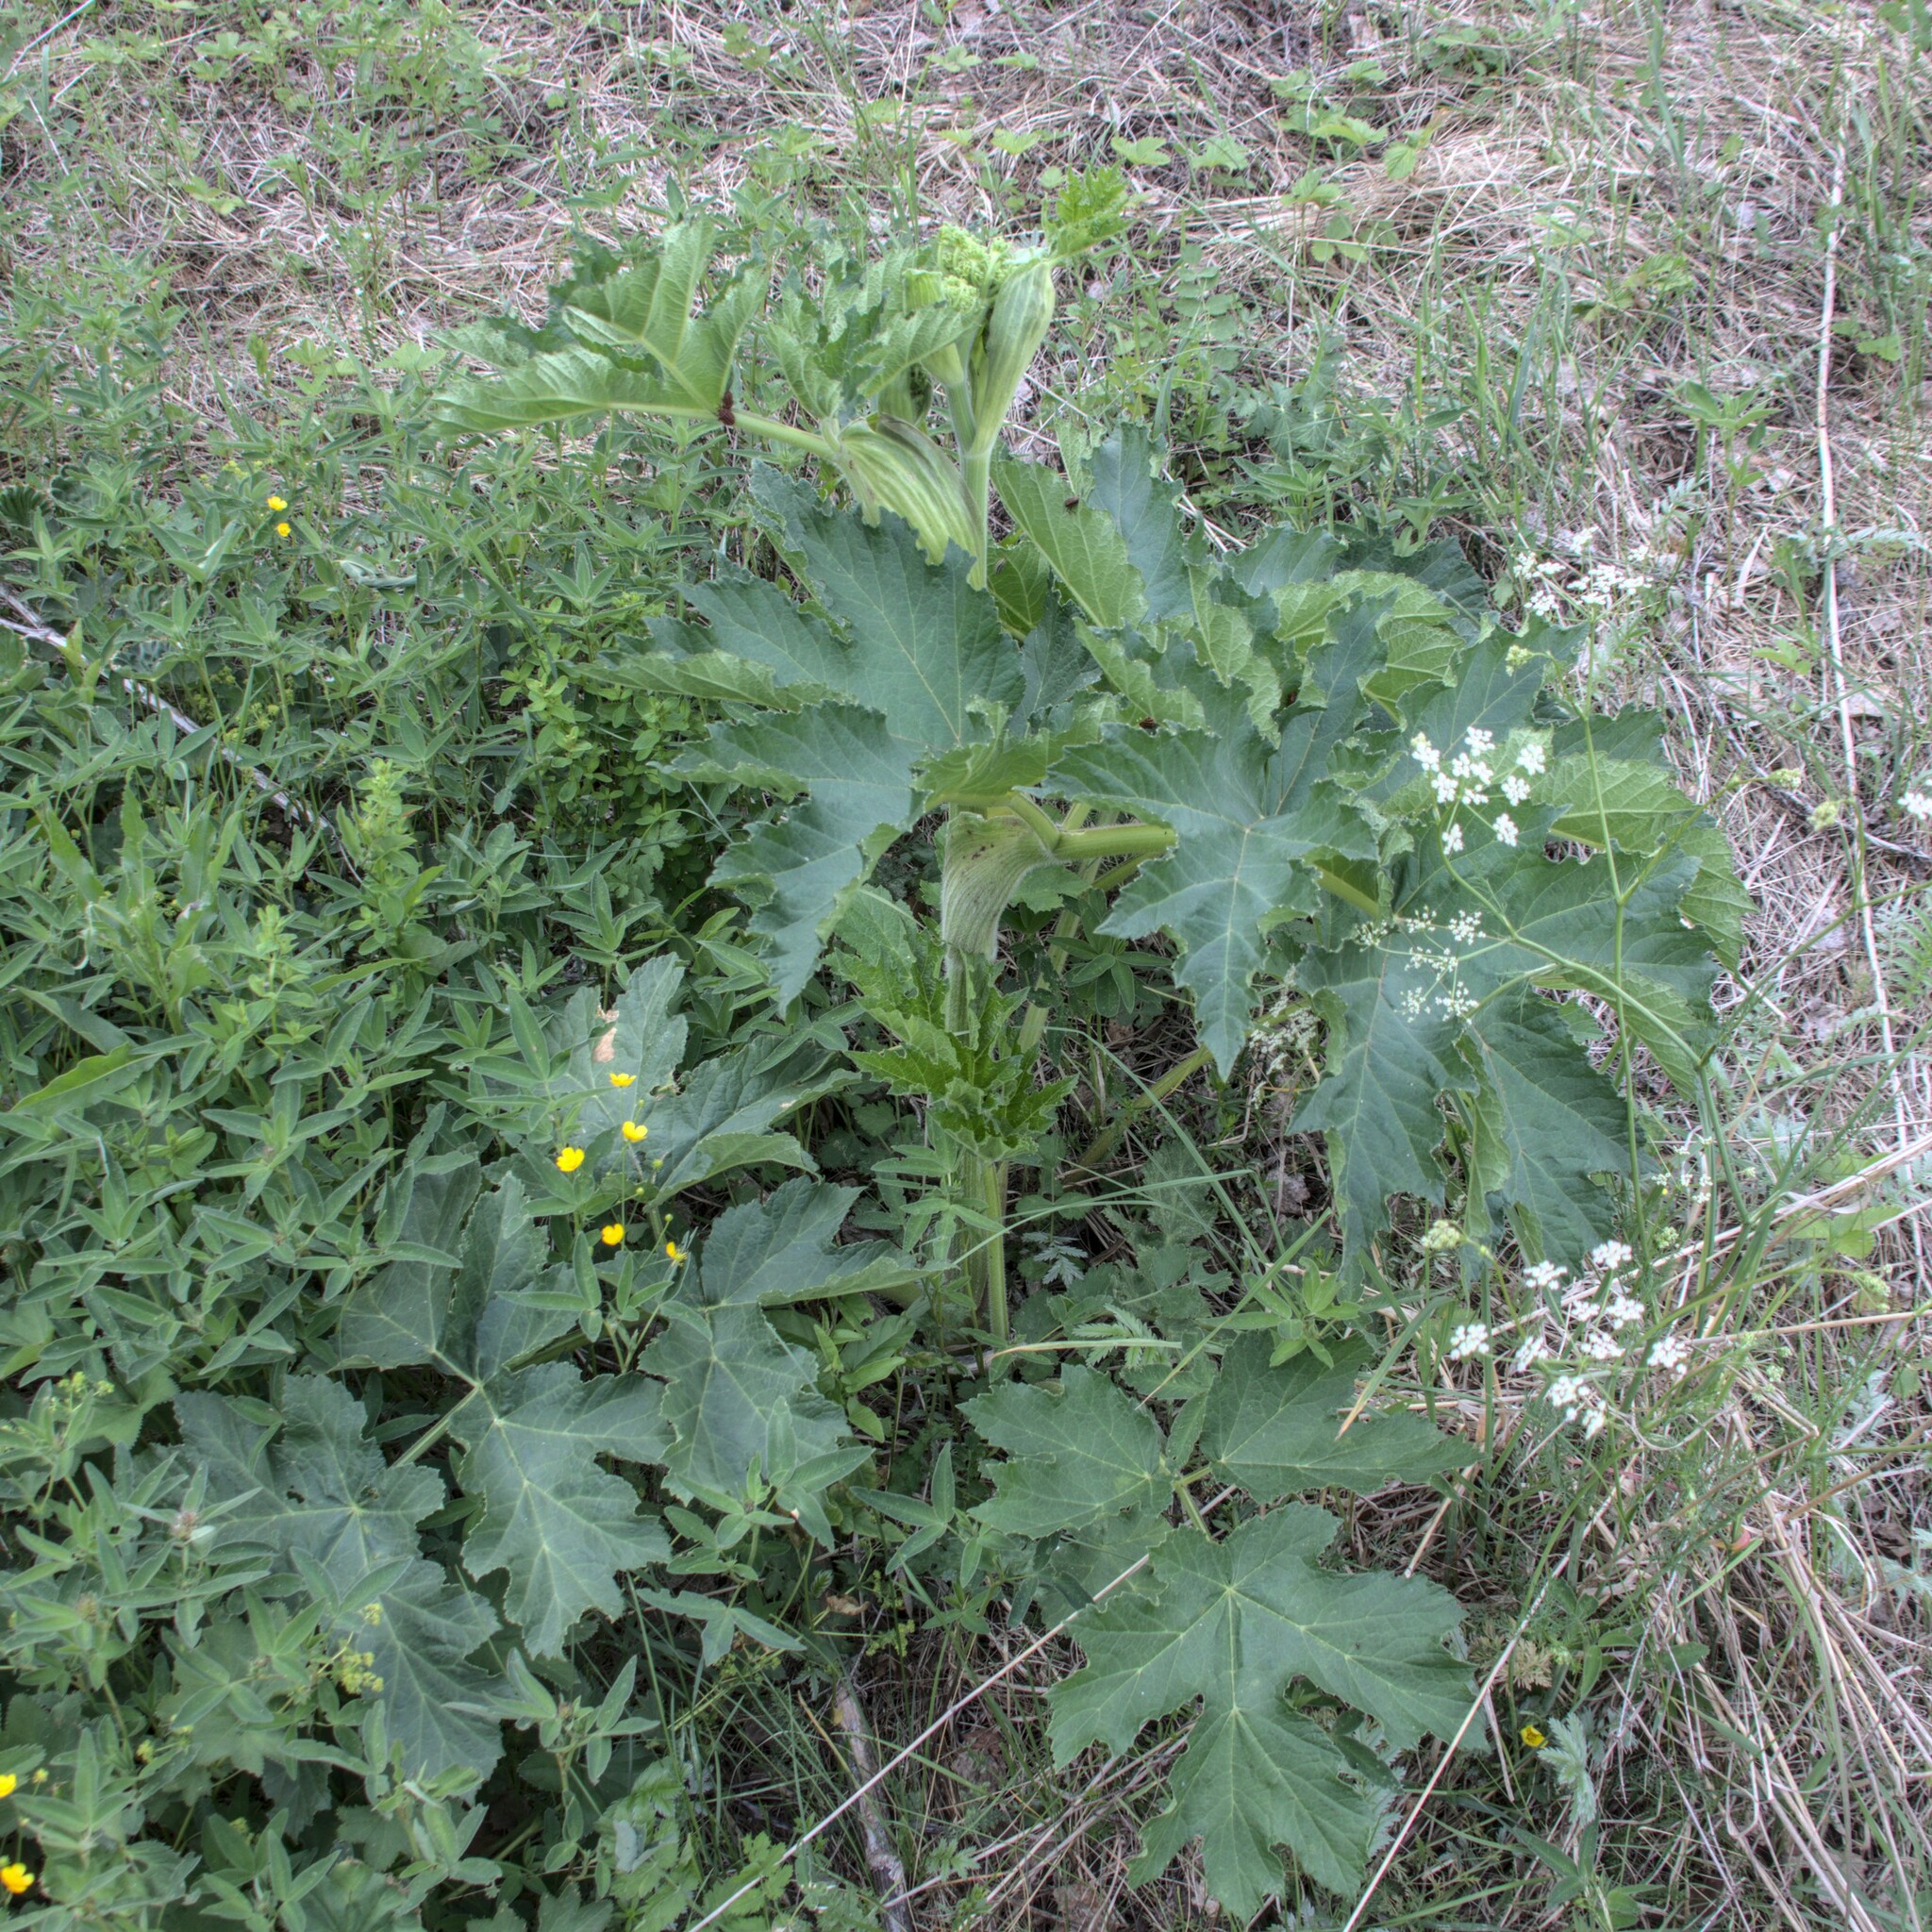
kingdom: Plantae
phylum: Tracheophyta
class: Magnoliopsida
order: Apiales
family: Apiaceae
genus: Heracleum
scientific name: Heracleum sphondylium
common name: Hogweed
